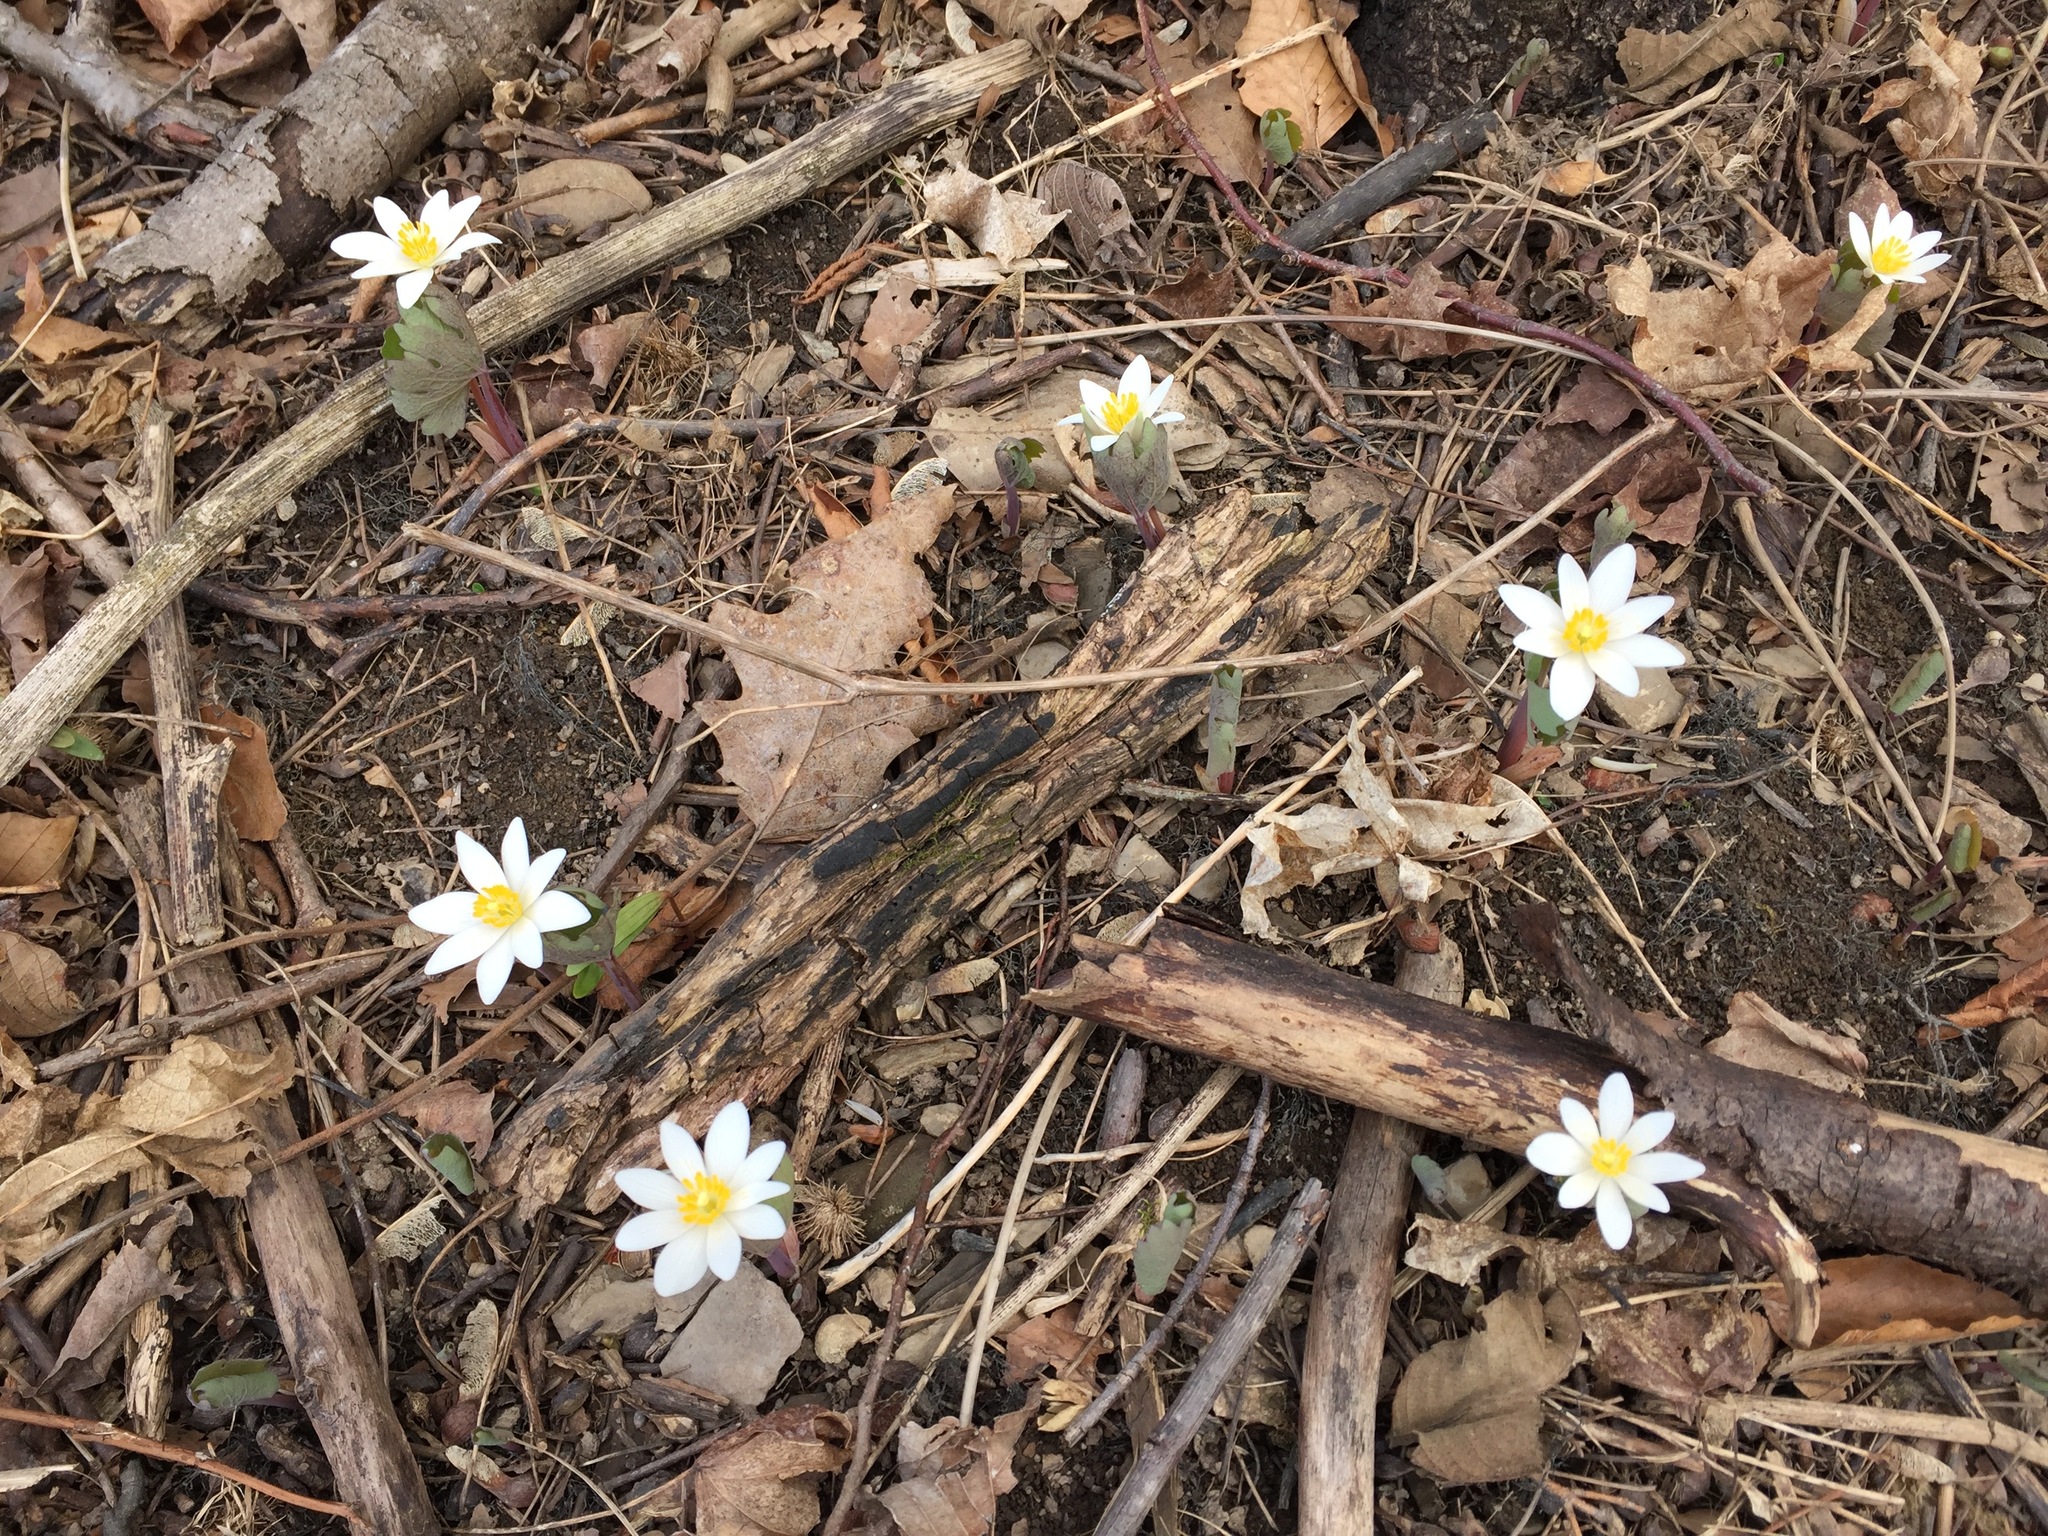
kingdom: Plantae
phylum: Tracheophyta
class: Magnoliopsida
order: Ranunculales
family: Papaveraceae
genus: Sanguinaria
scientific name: Sanguinaria canadensis
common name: Bloodroot
